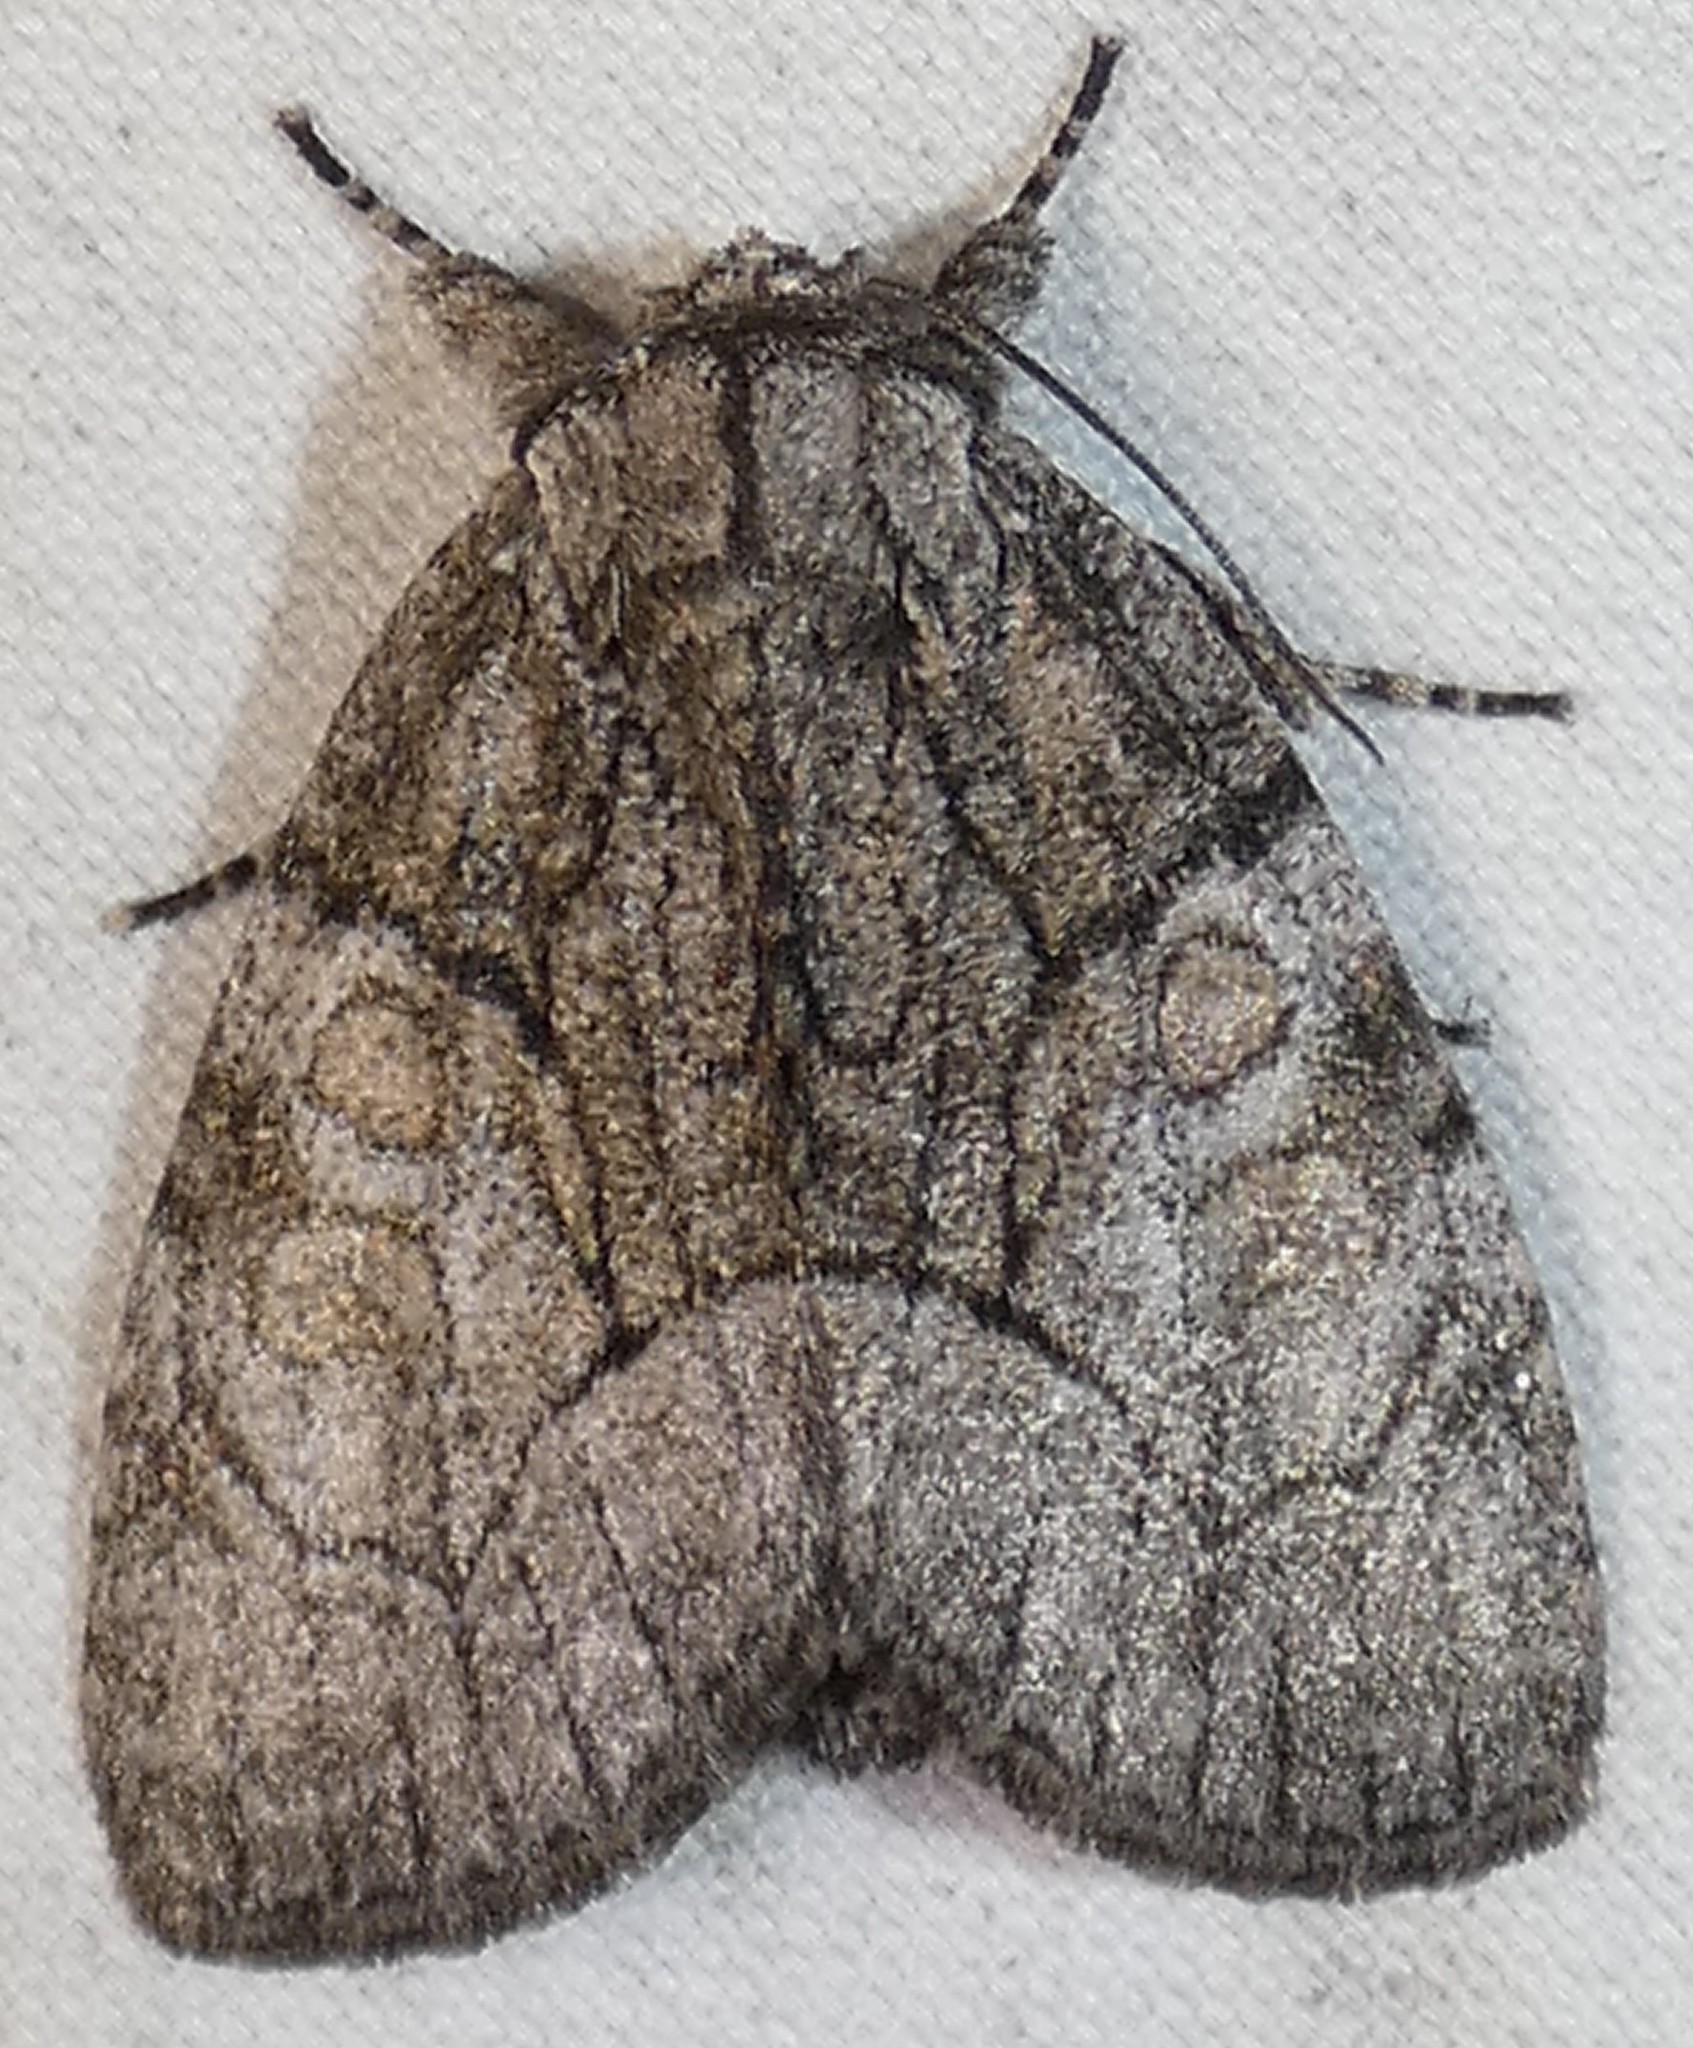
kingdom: Animalia
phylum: Arthropoda
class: Insecta
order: Lepidoptera
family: Noctuidae
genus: Raphia
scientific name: Raphia frater
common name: Brother
